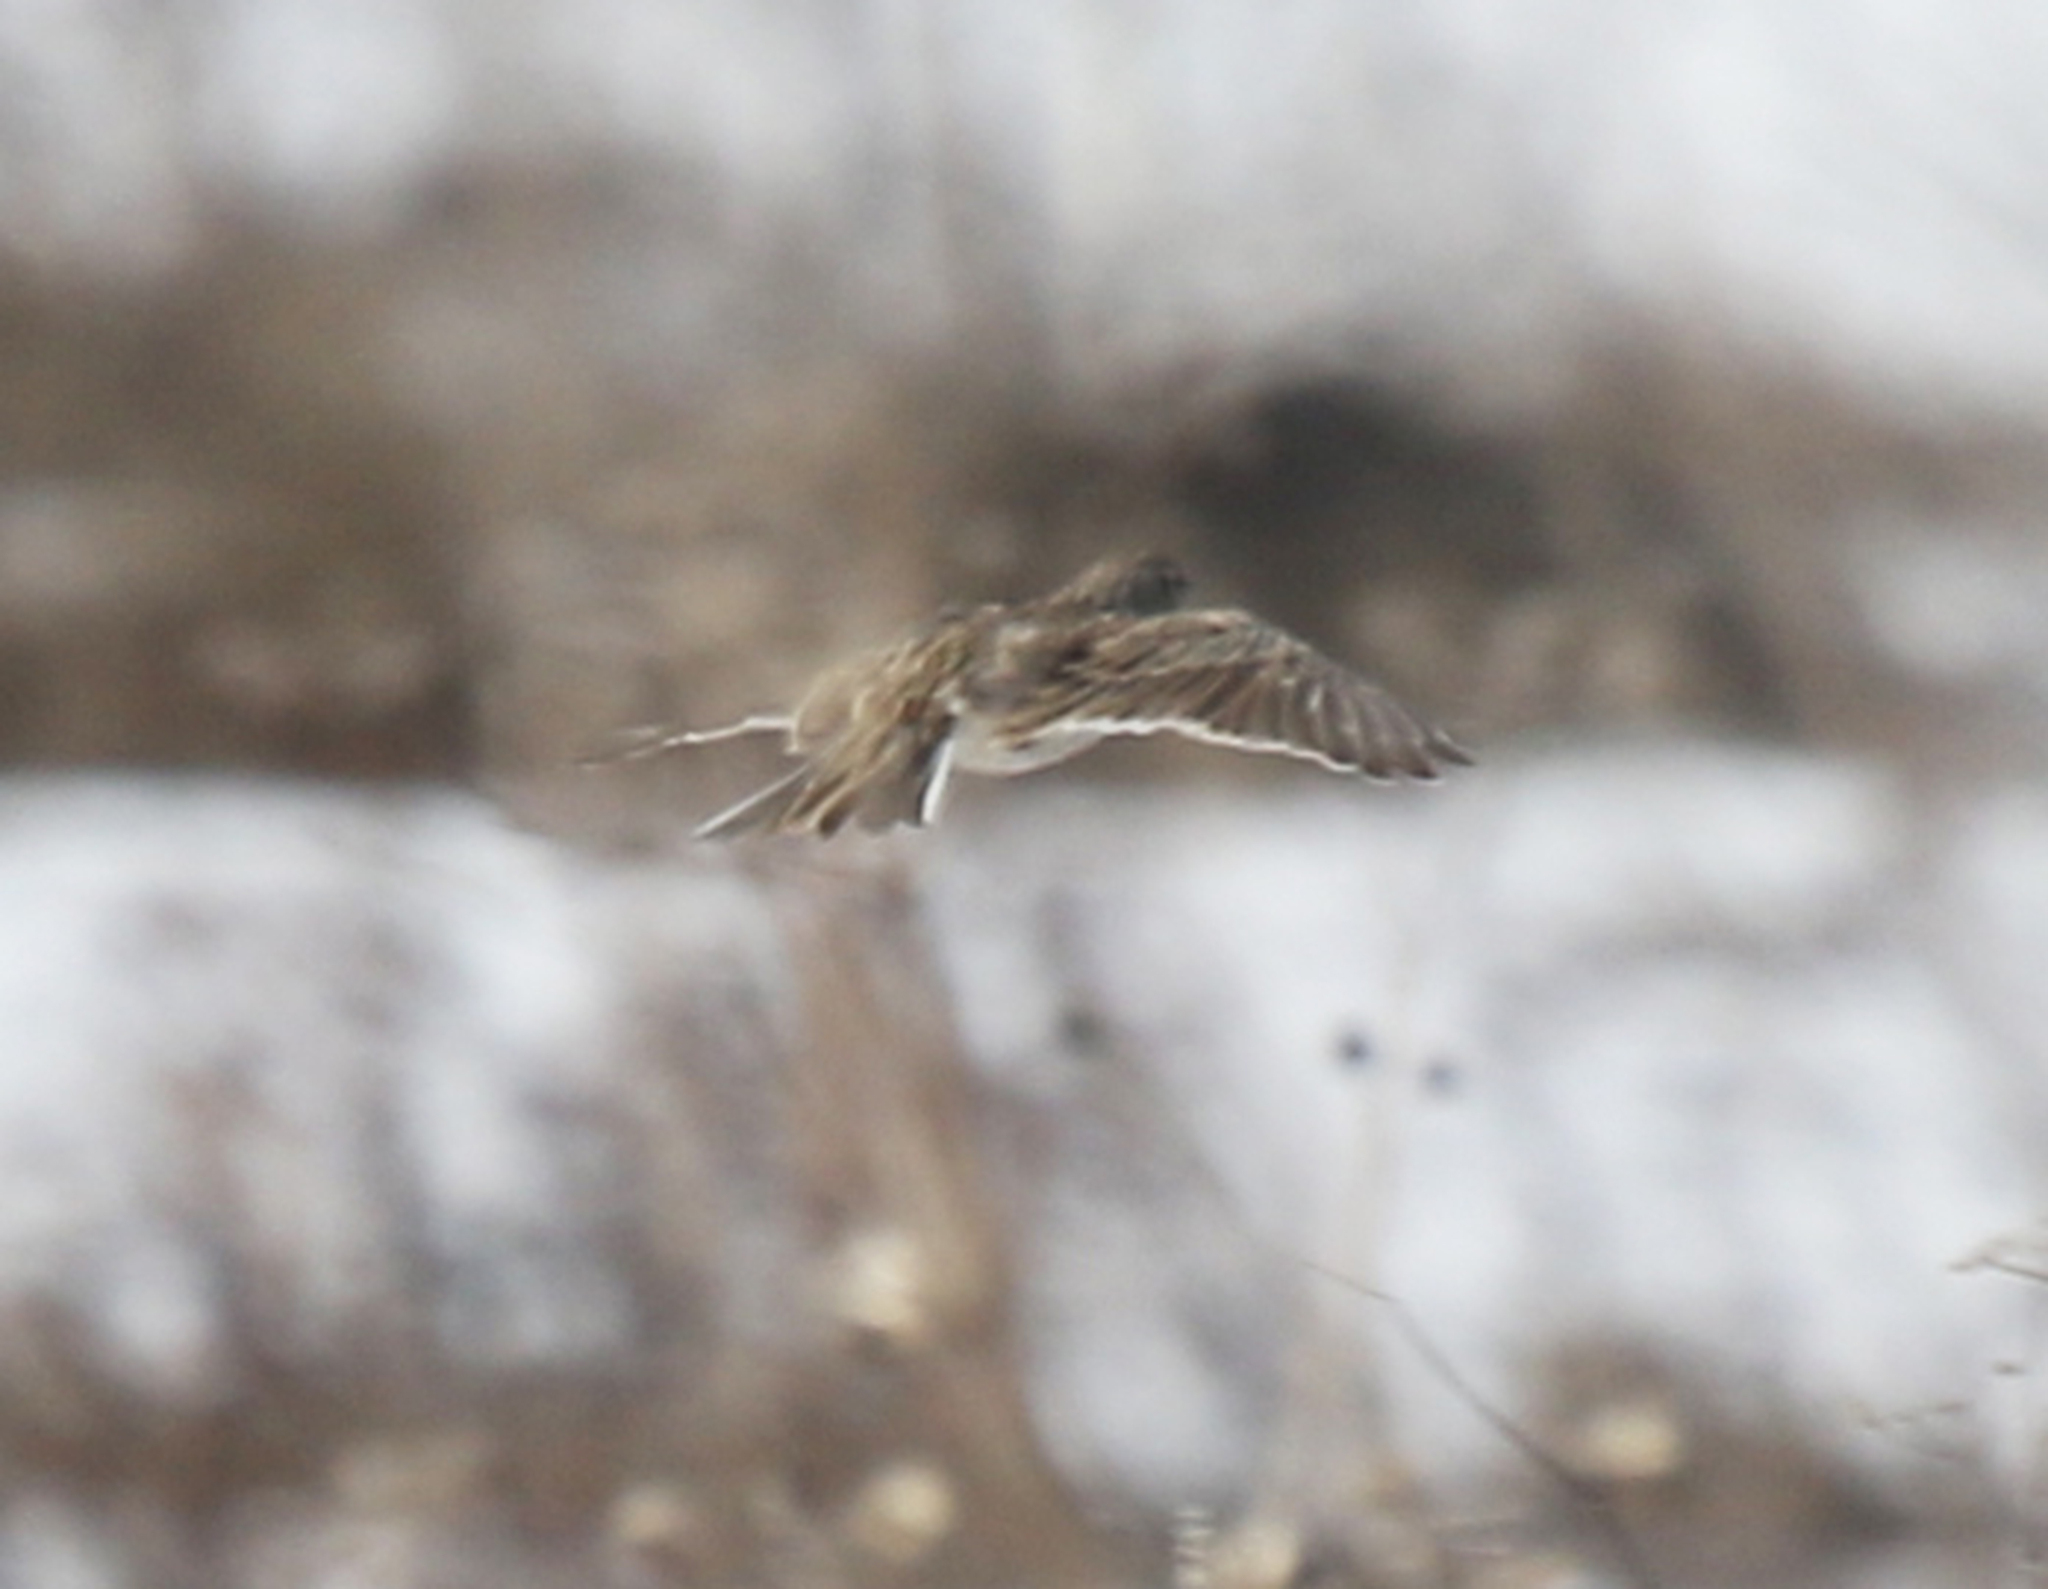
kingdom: Animalia
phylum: Chordata
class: Aves
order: Passeriformes
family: Alaudidae
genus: Alauda
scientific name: Alauda arvensis
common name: Eurasian skylark
